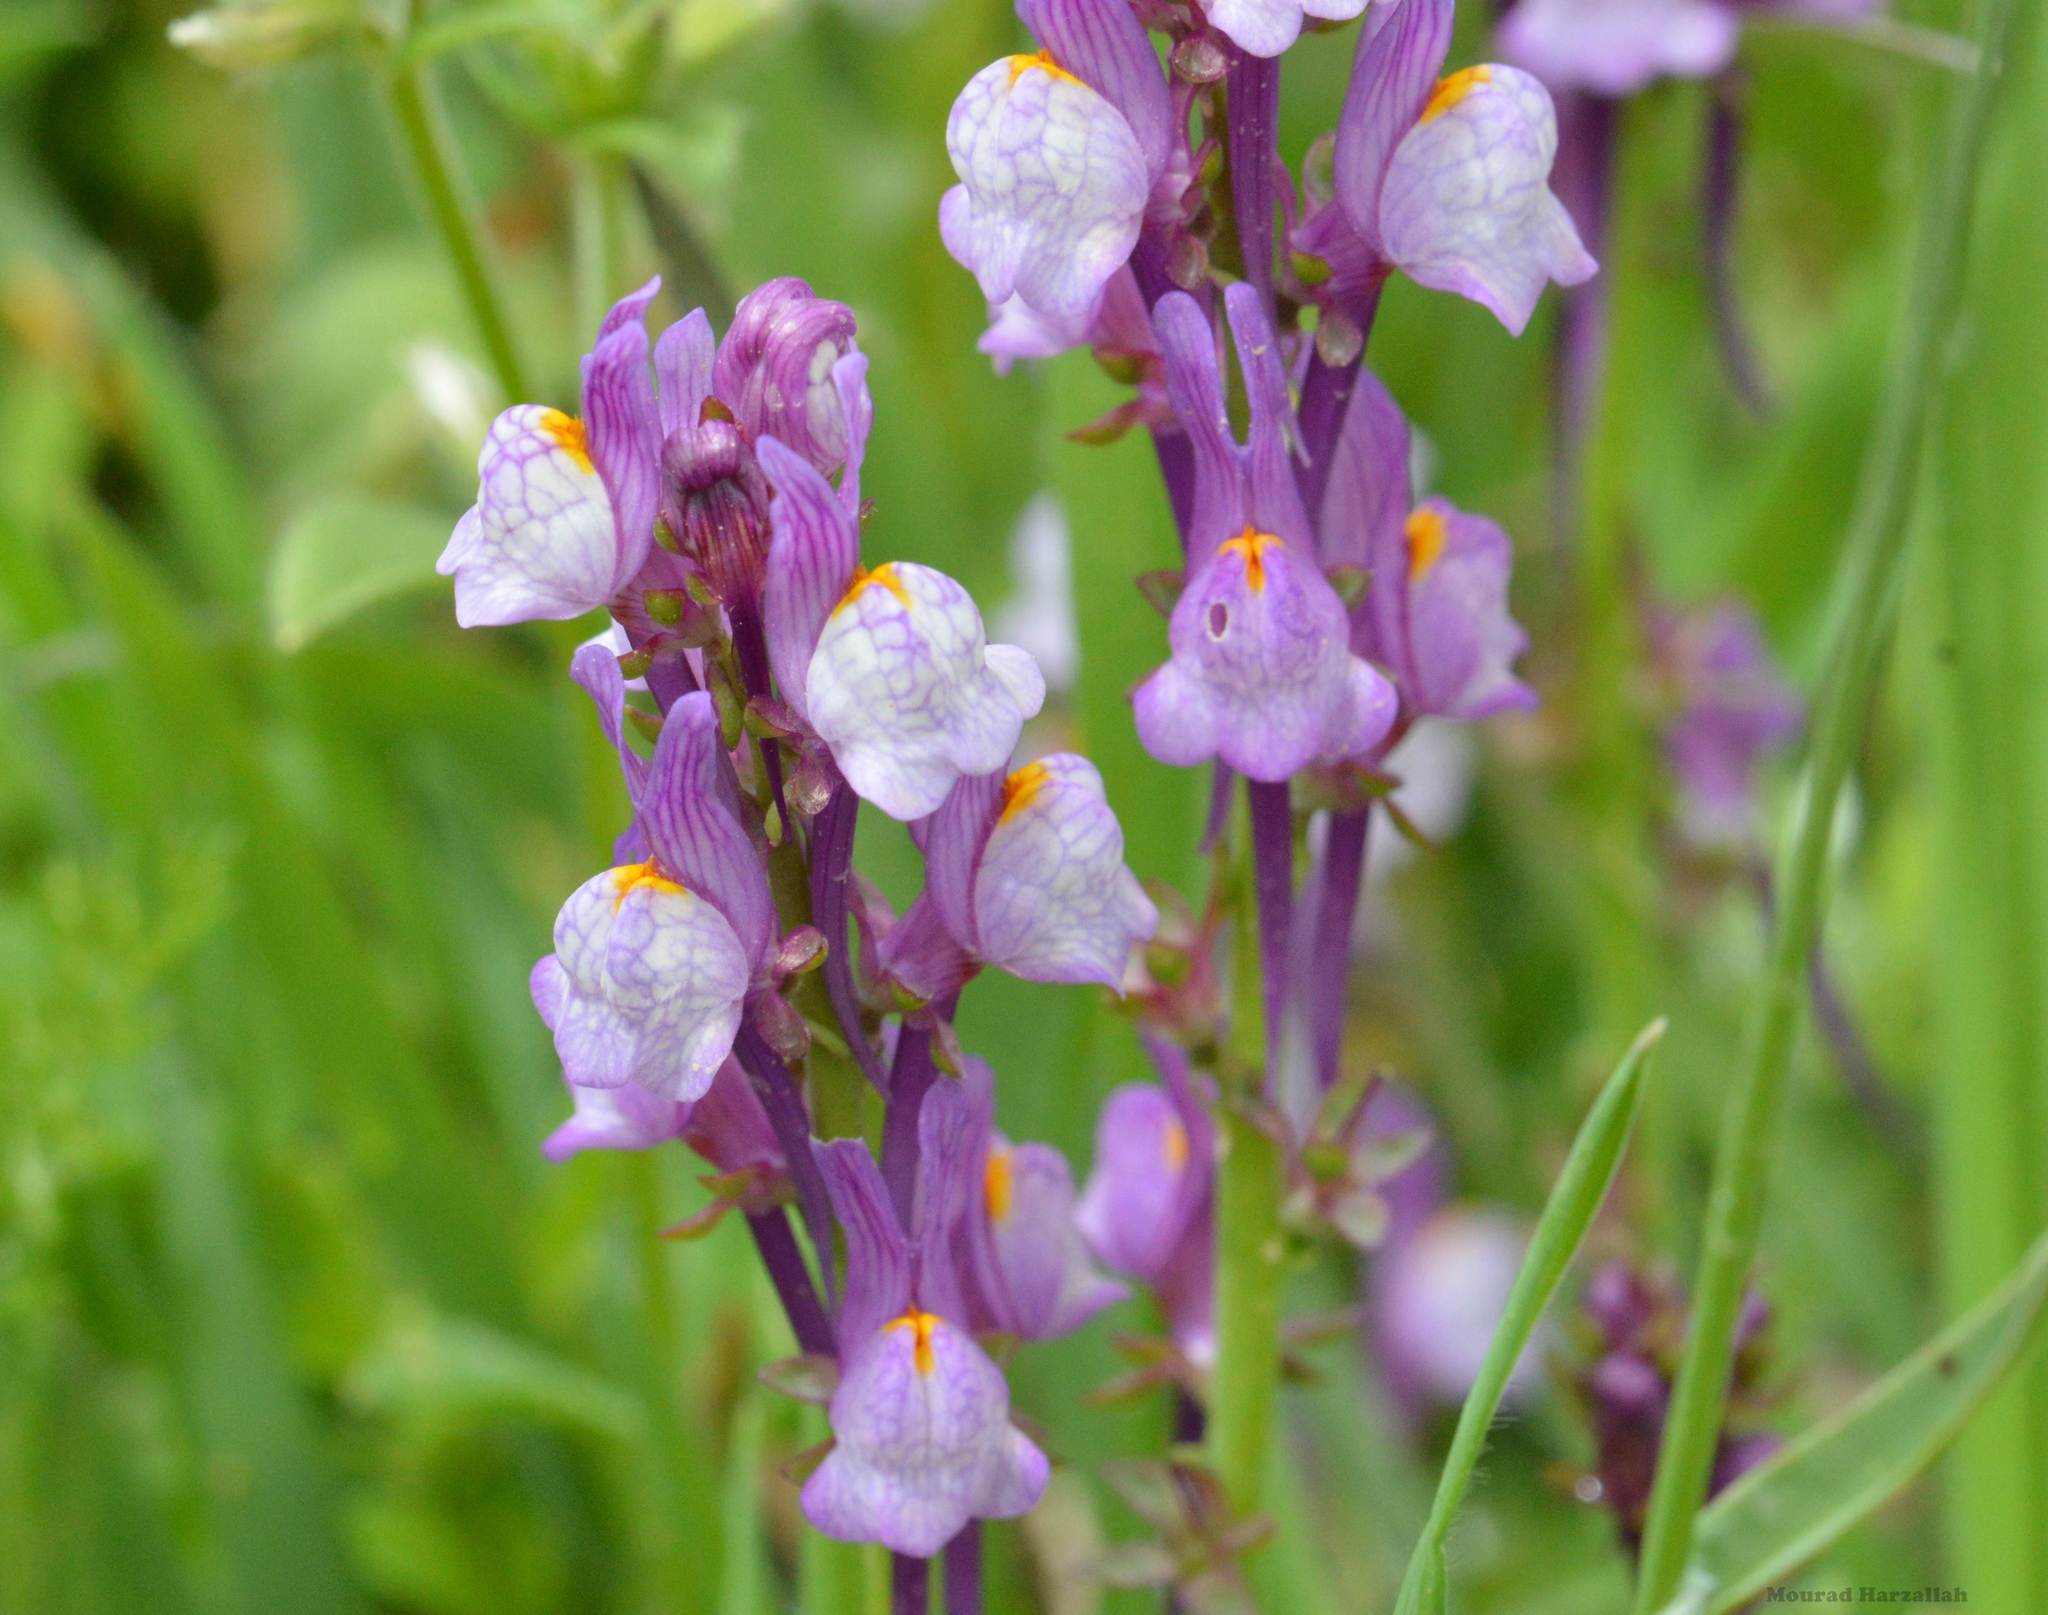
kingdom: Plantae
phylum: Tracheophyta
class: Magnoliopsida
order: Lamiales
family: Plantaginaceae
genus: Linaria
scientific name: Linaria virgata
